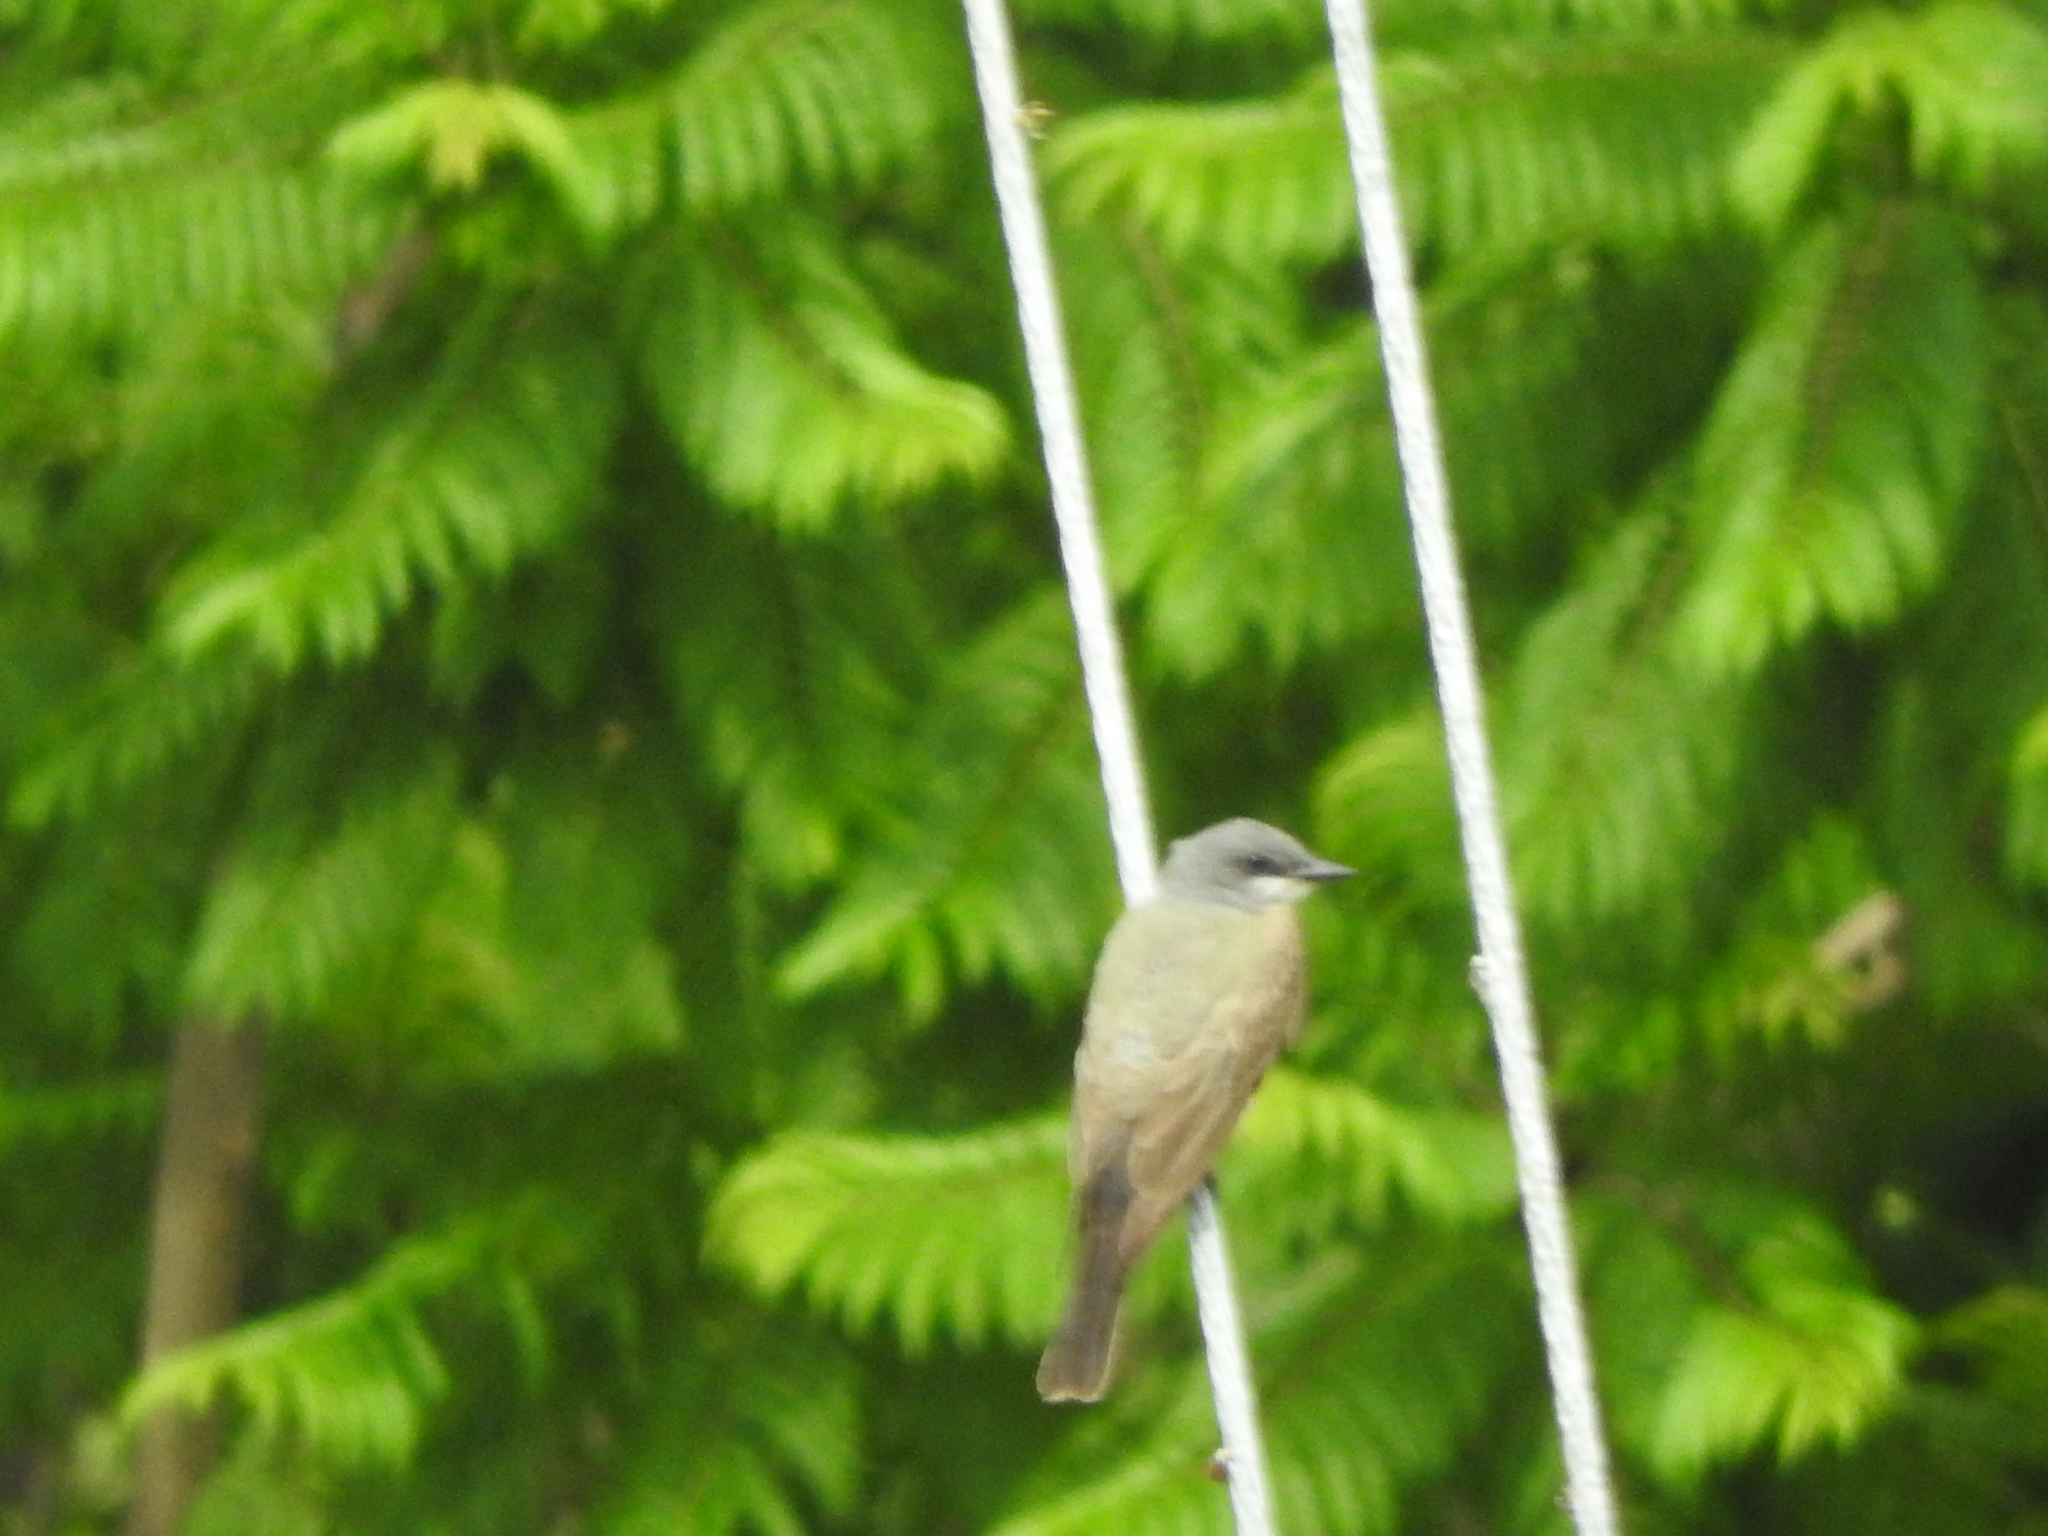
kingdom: Animalia
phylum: Chordata
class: Aves
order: Passeriformes
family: Tyrannidae
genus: Tyrannus
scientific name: Tyrannus vociferans
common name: Cassin's kingbird
